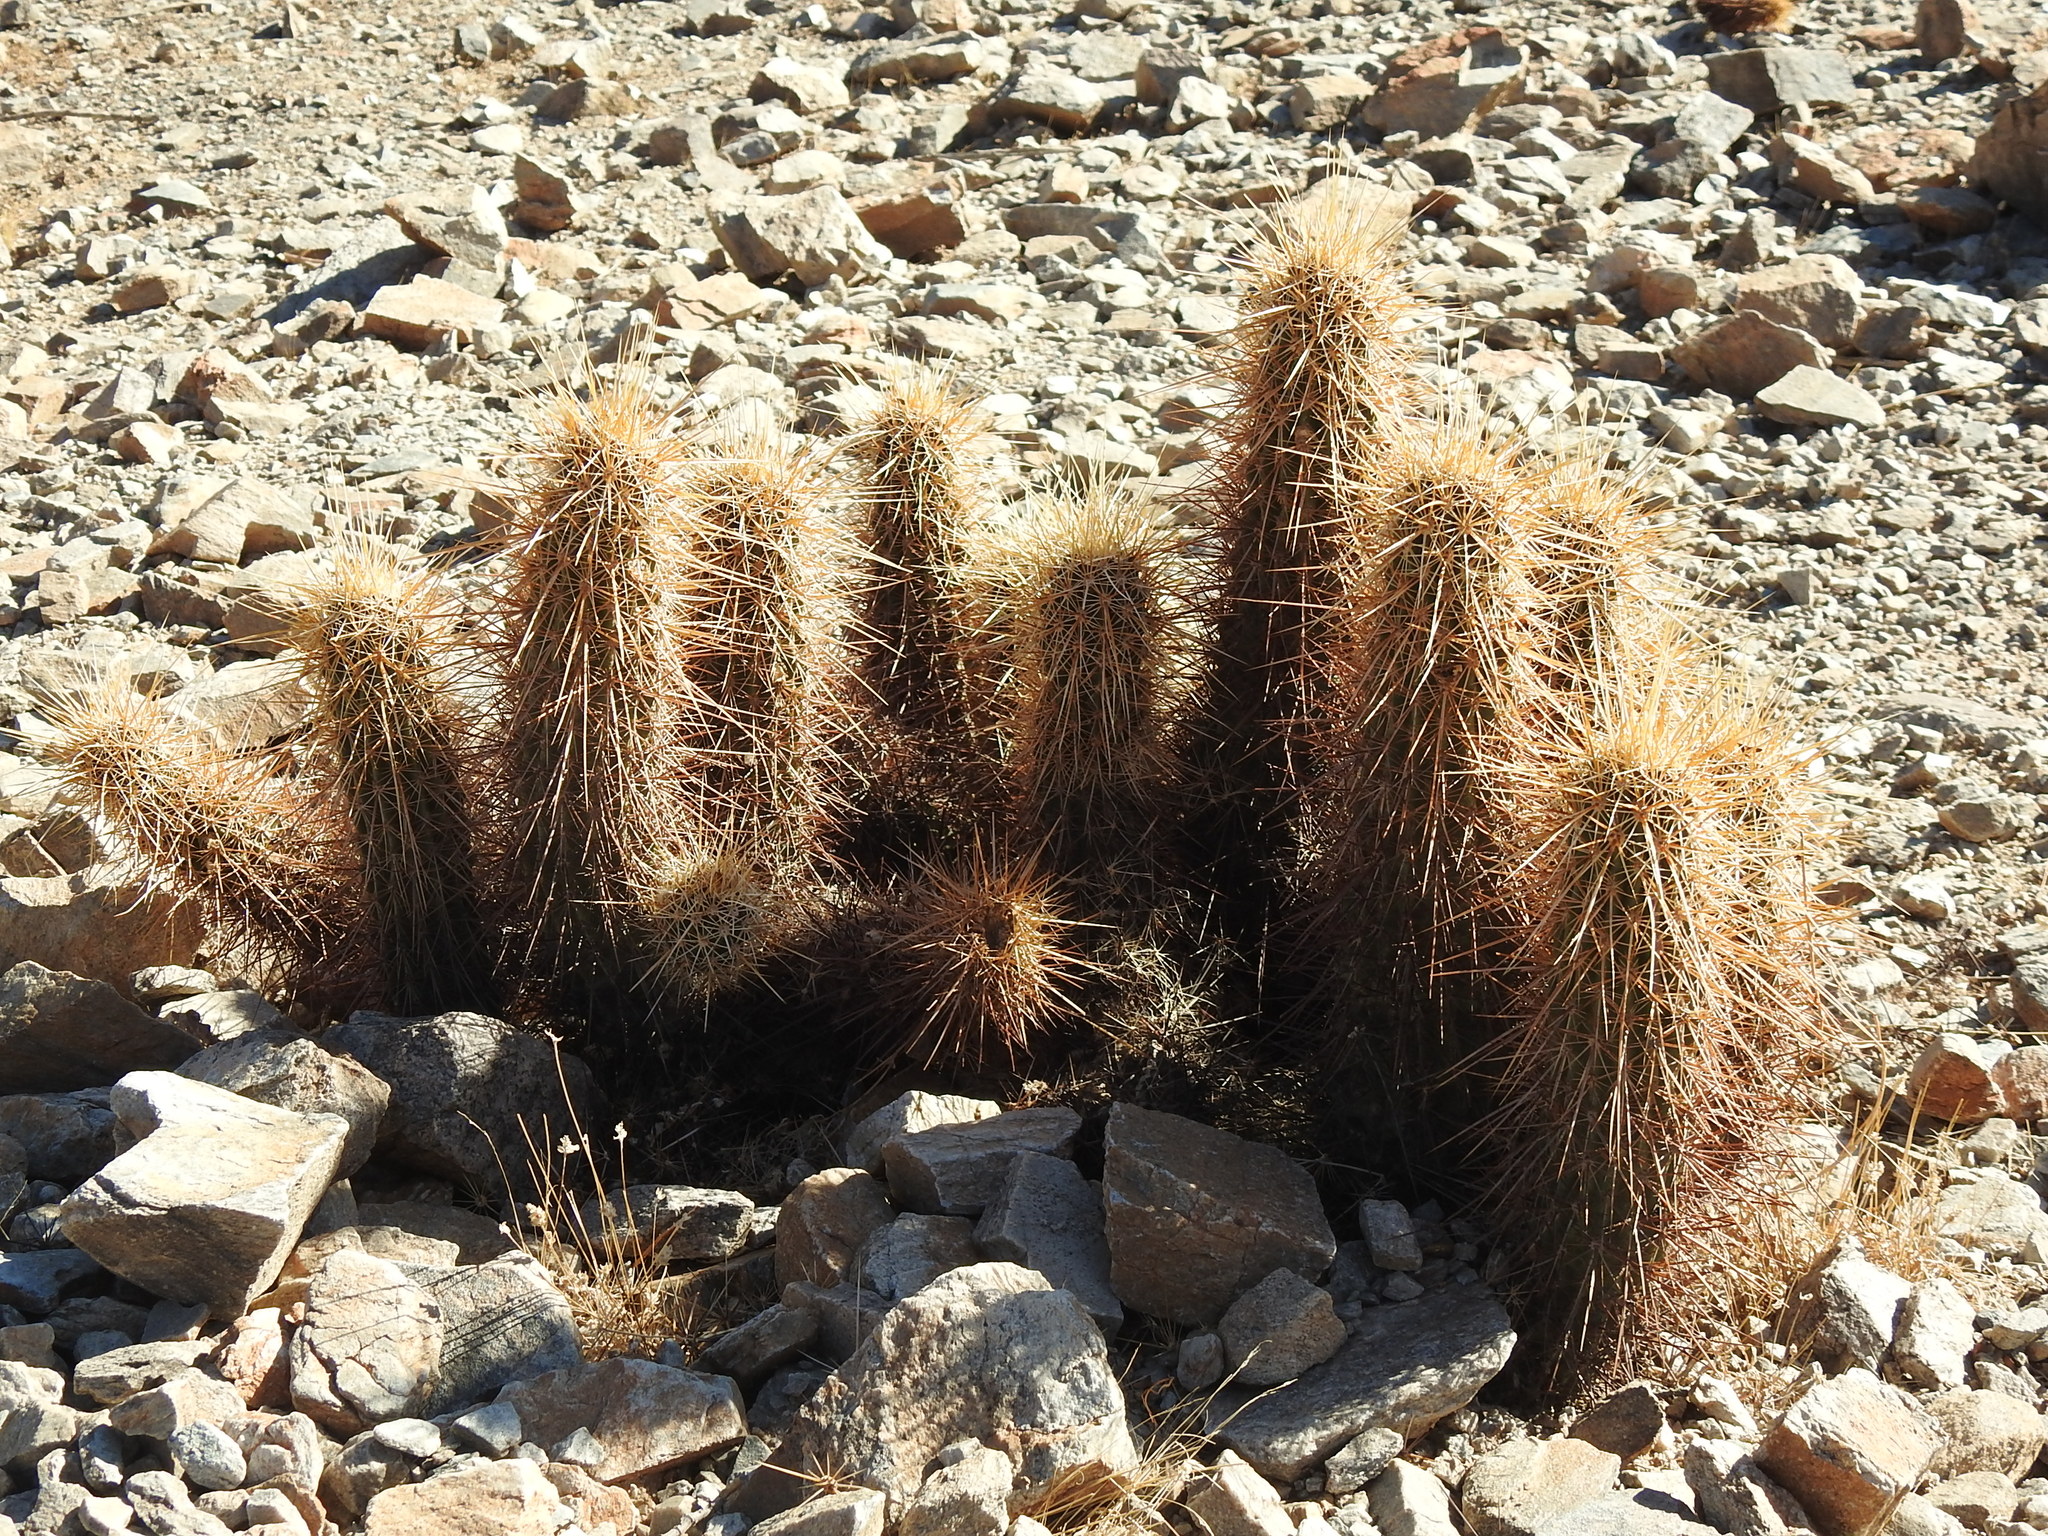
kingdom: Plantae
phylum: Tracheophyta
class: Magnoliopsida
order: Caryophyllales
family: Cactaceae
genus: Echinocereus
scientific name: Echinocereus engelmannii
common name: Engelmann's hedgehog cactus
